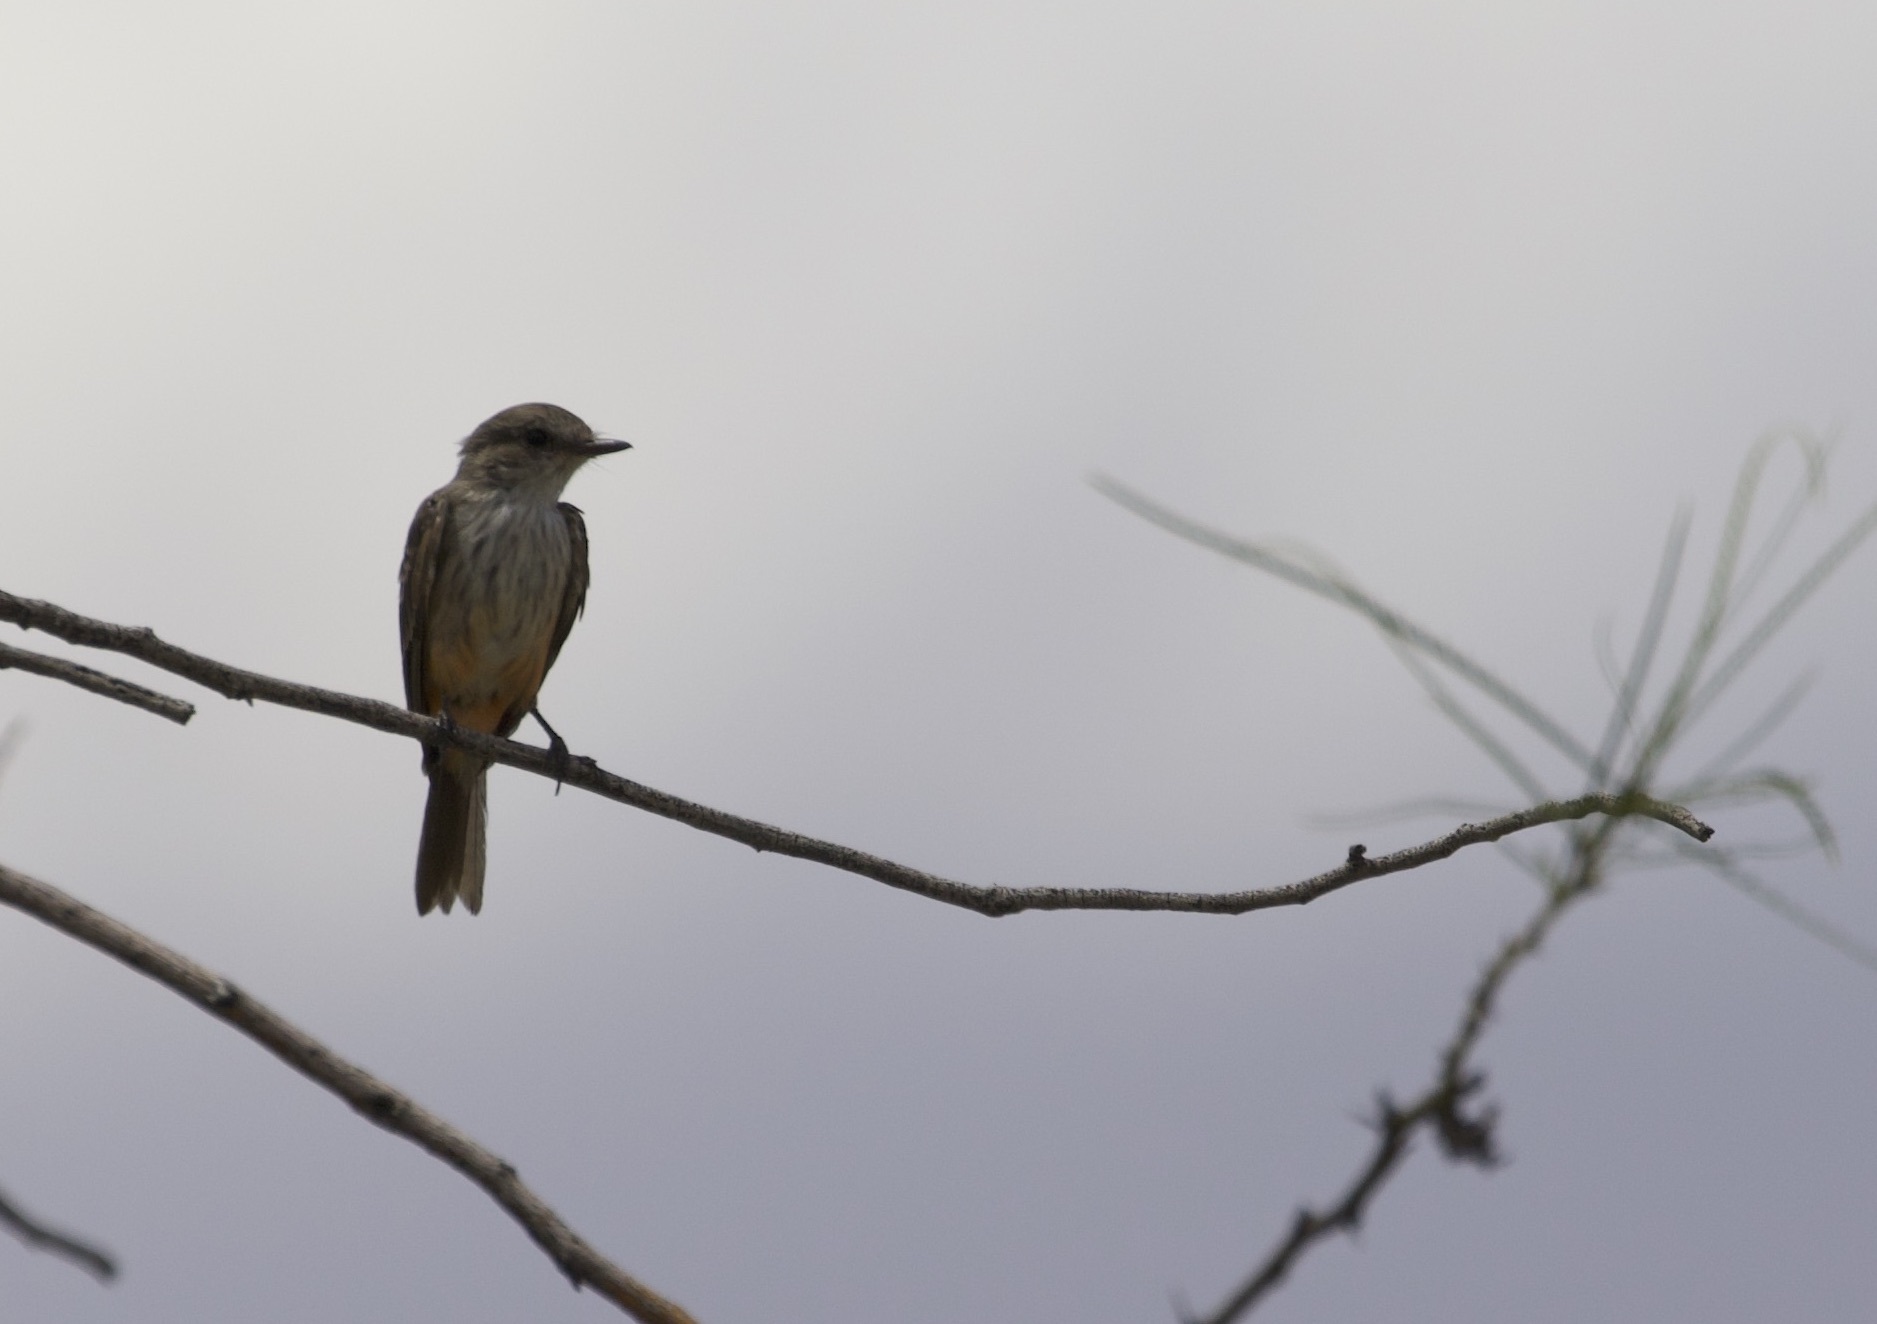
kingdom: Animalia
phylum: Chordata
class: Aves
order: Passeriformes
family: Tyrannidae
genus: Pyrocephalus
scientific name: Pyrocephalus rubinus
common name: Vermilion flycatcher
